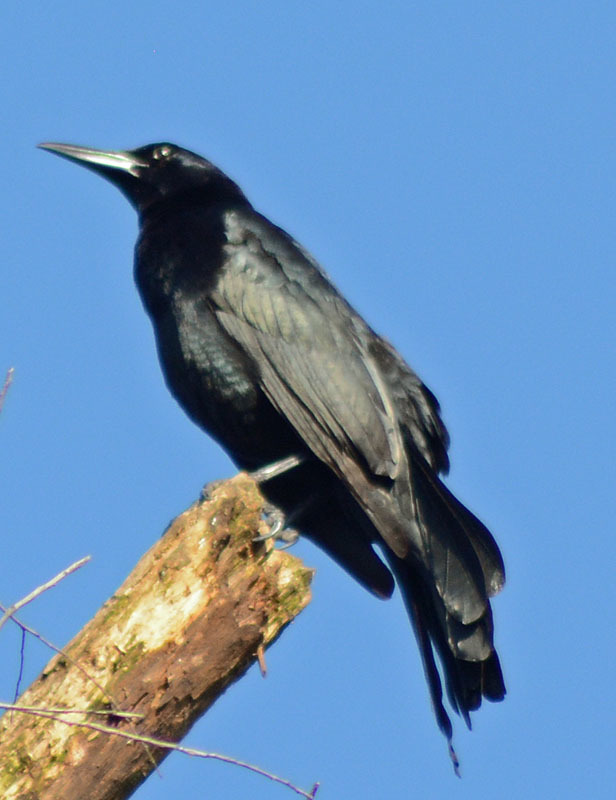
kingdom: Animalia
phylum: Chordata
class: Aves
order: Passeriformes
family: Icteridae
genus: Quiscalus
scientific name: Quiscalus mexicanus
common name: Great-tailed grackle
